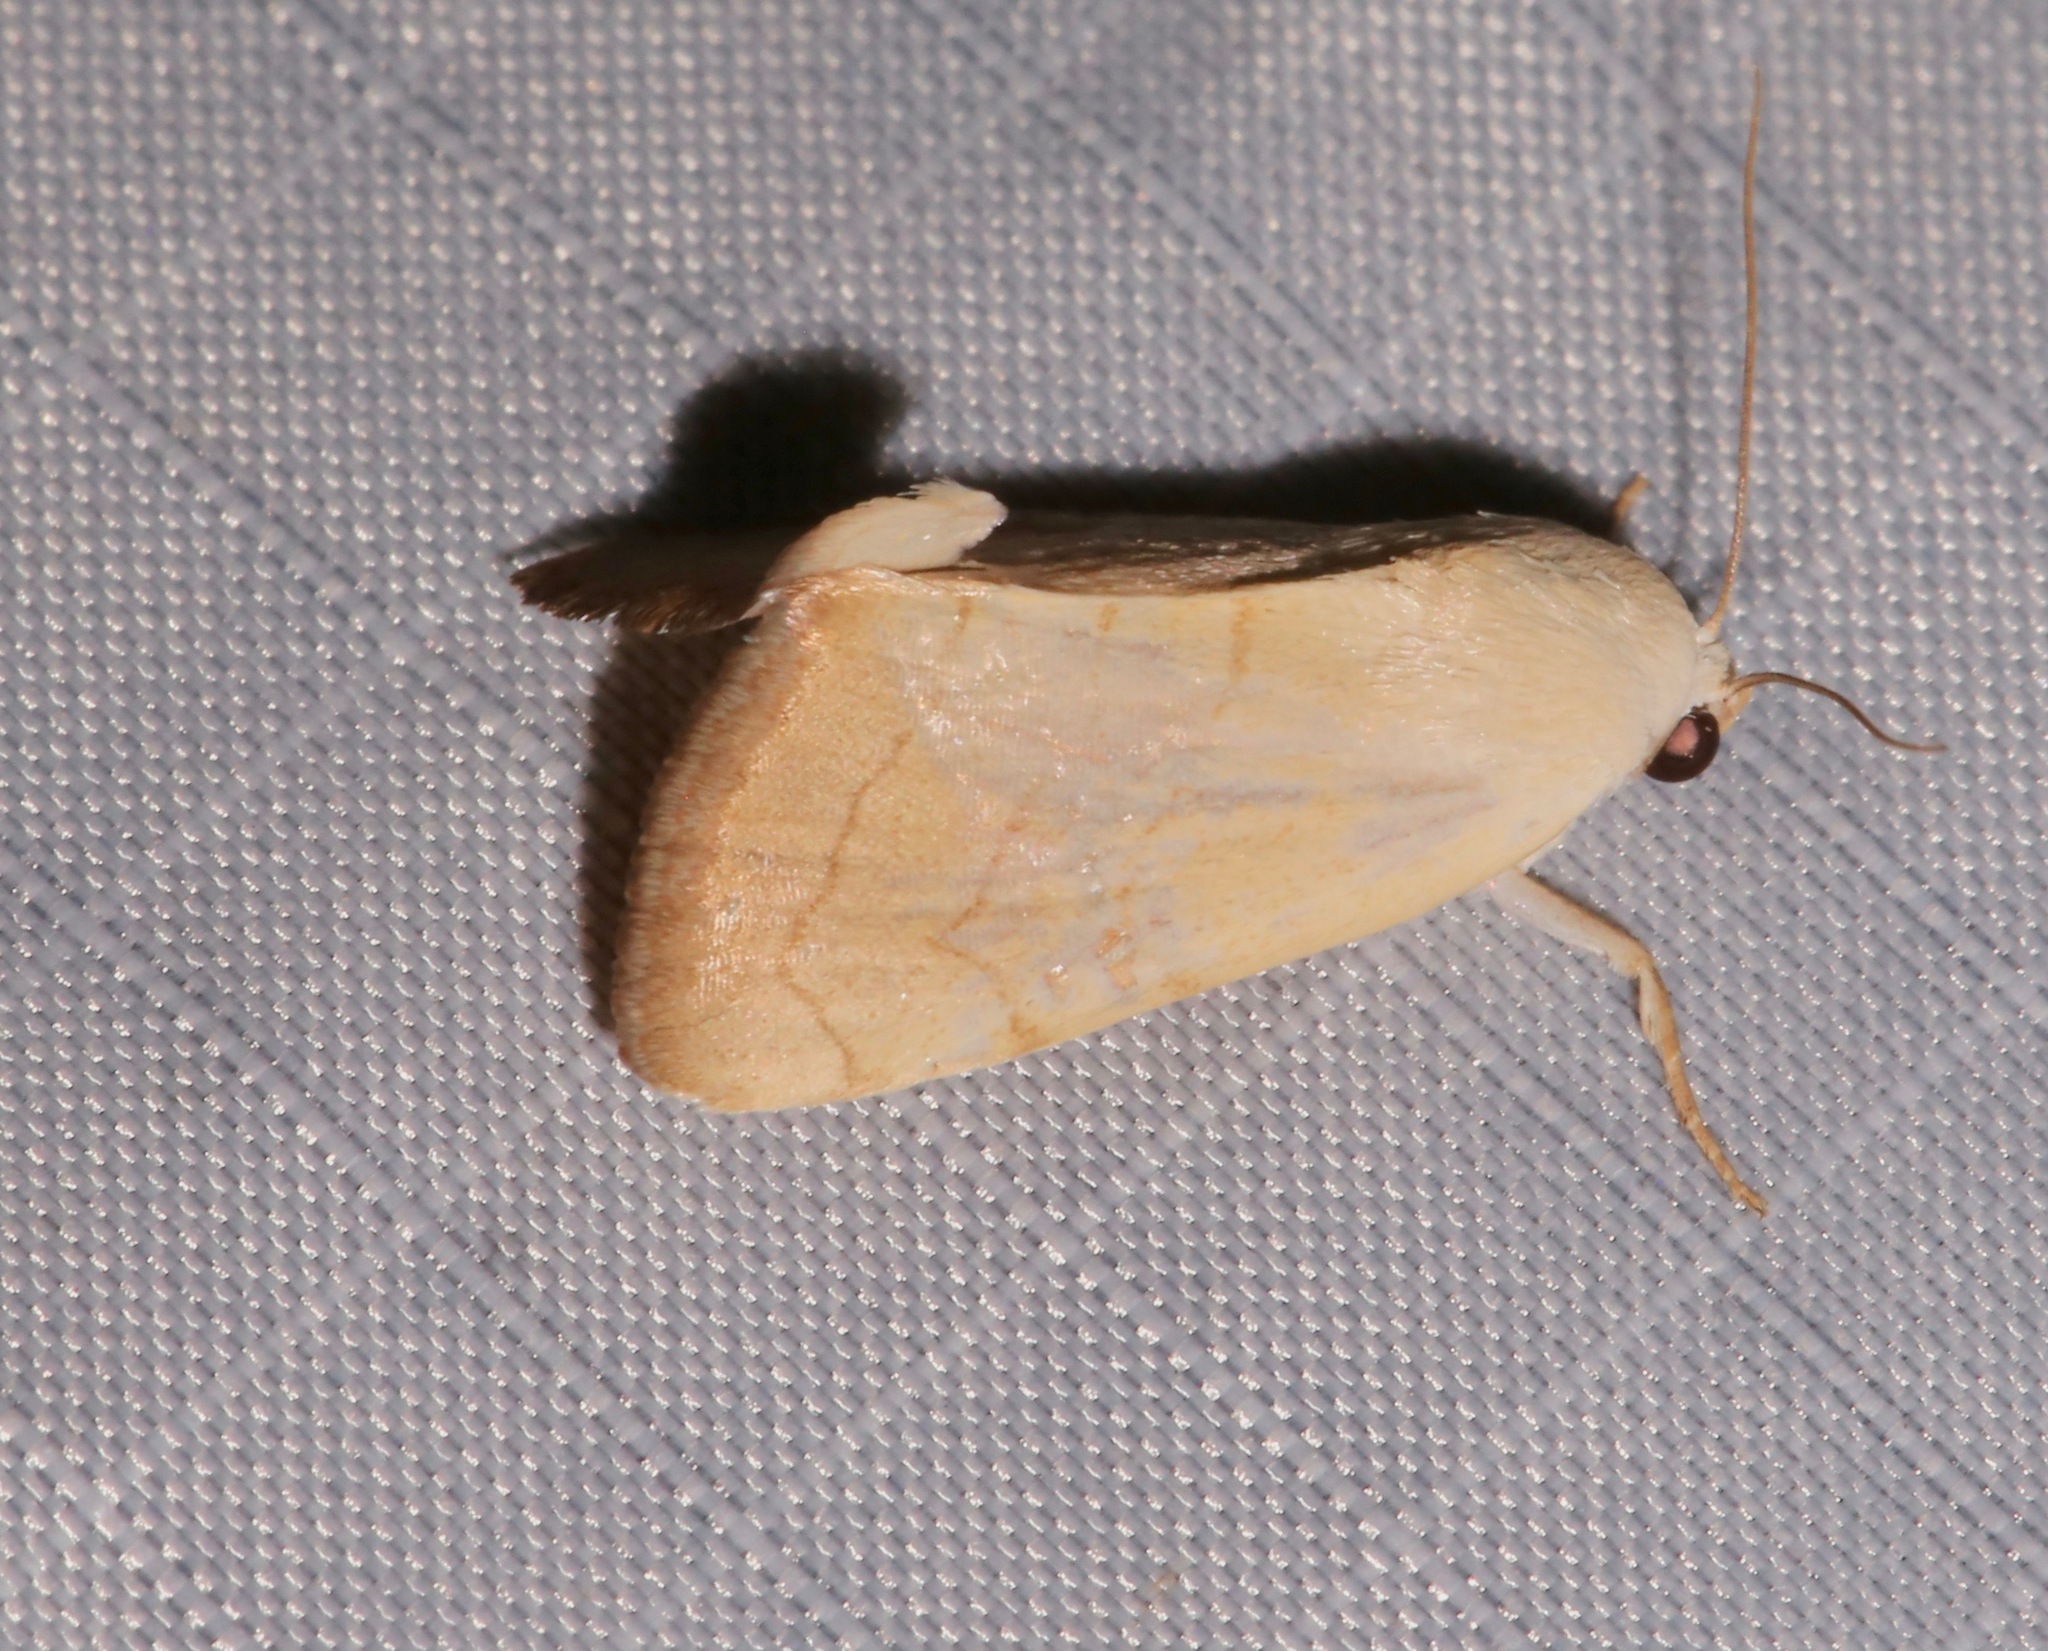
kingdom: Animalia
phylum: Arthropoda
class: Insecta
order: Lepidoptera
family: Noctuidae
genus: Bagisara
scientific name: Bagisara buxea
